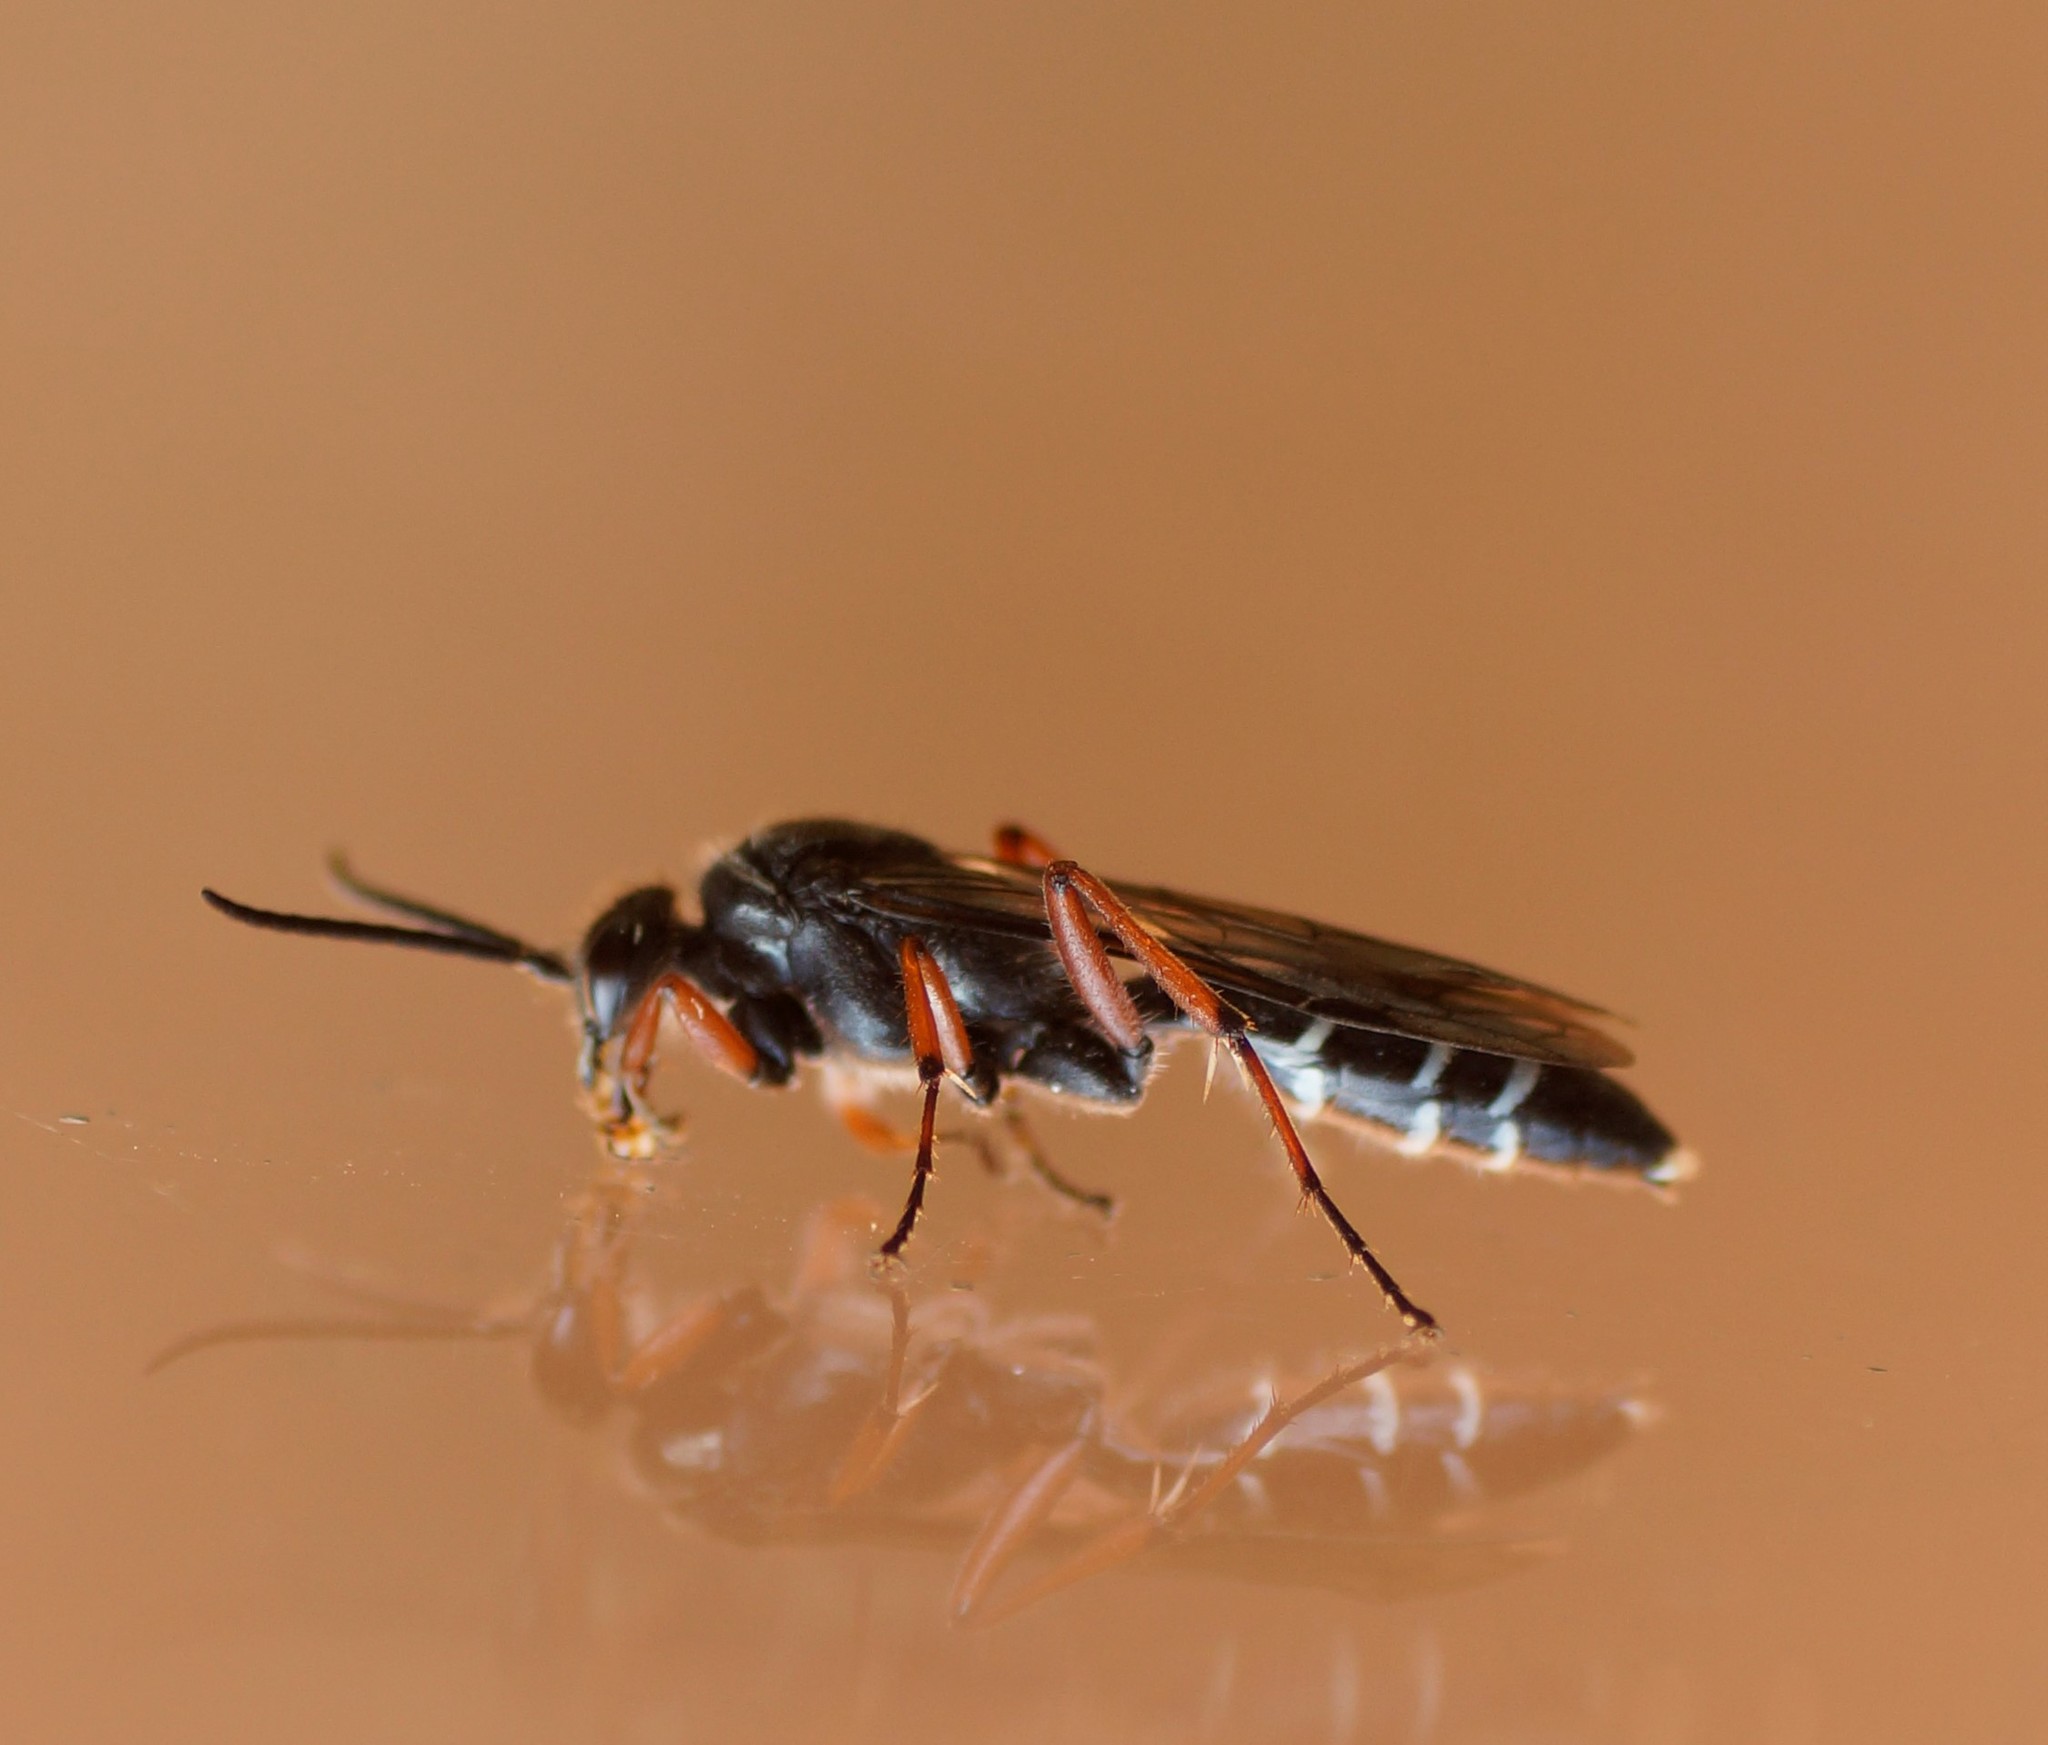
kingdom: Animalia
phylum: Arthropoda
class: Insecta
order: Hymenoptera
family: Tiphiidae
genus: Diamma
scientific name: Diamma
